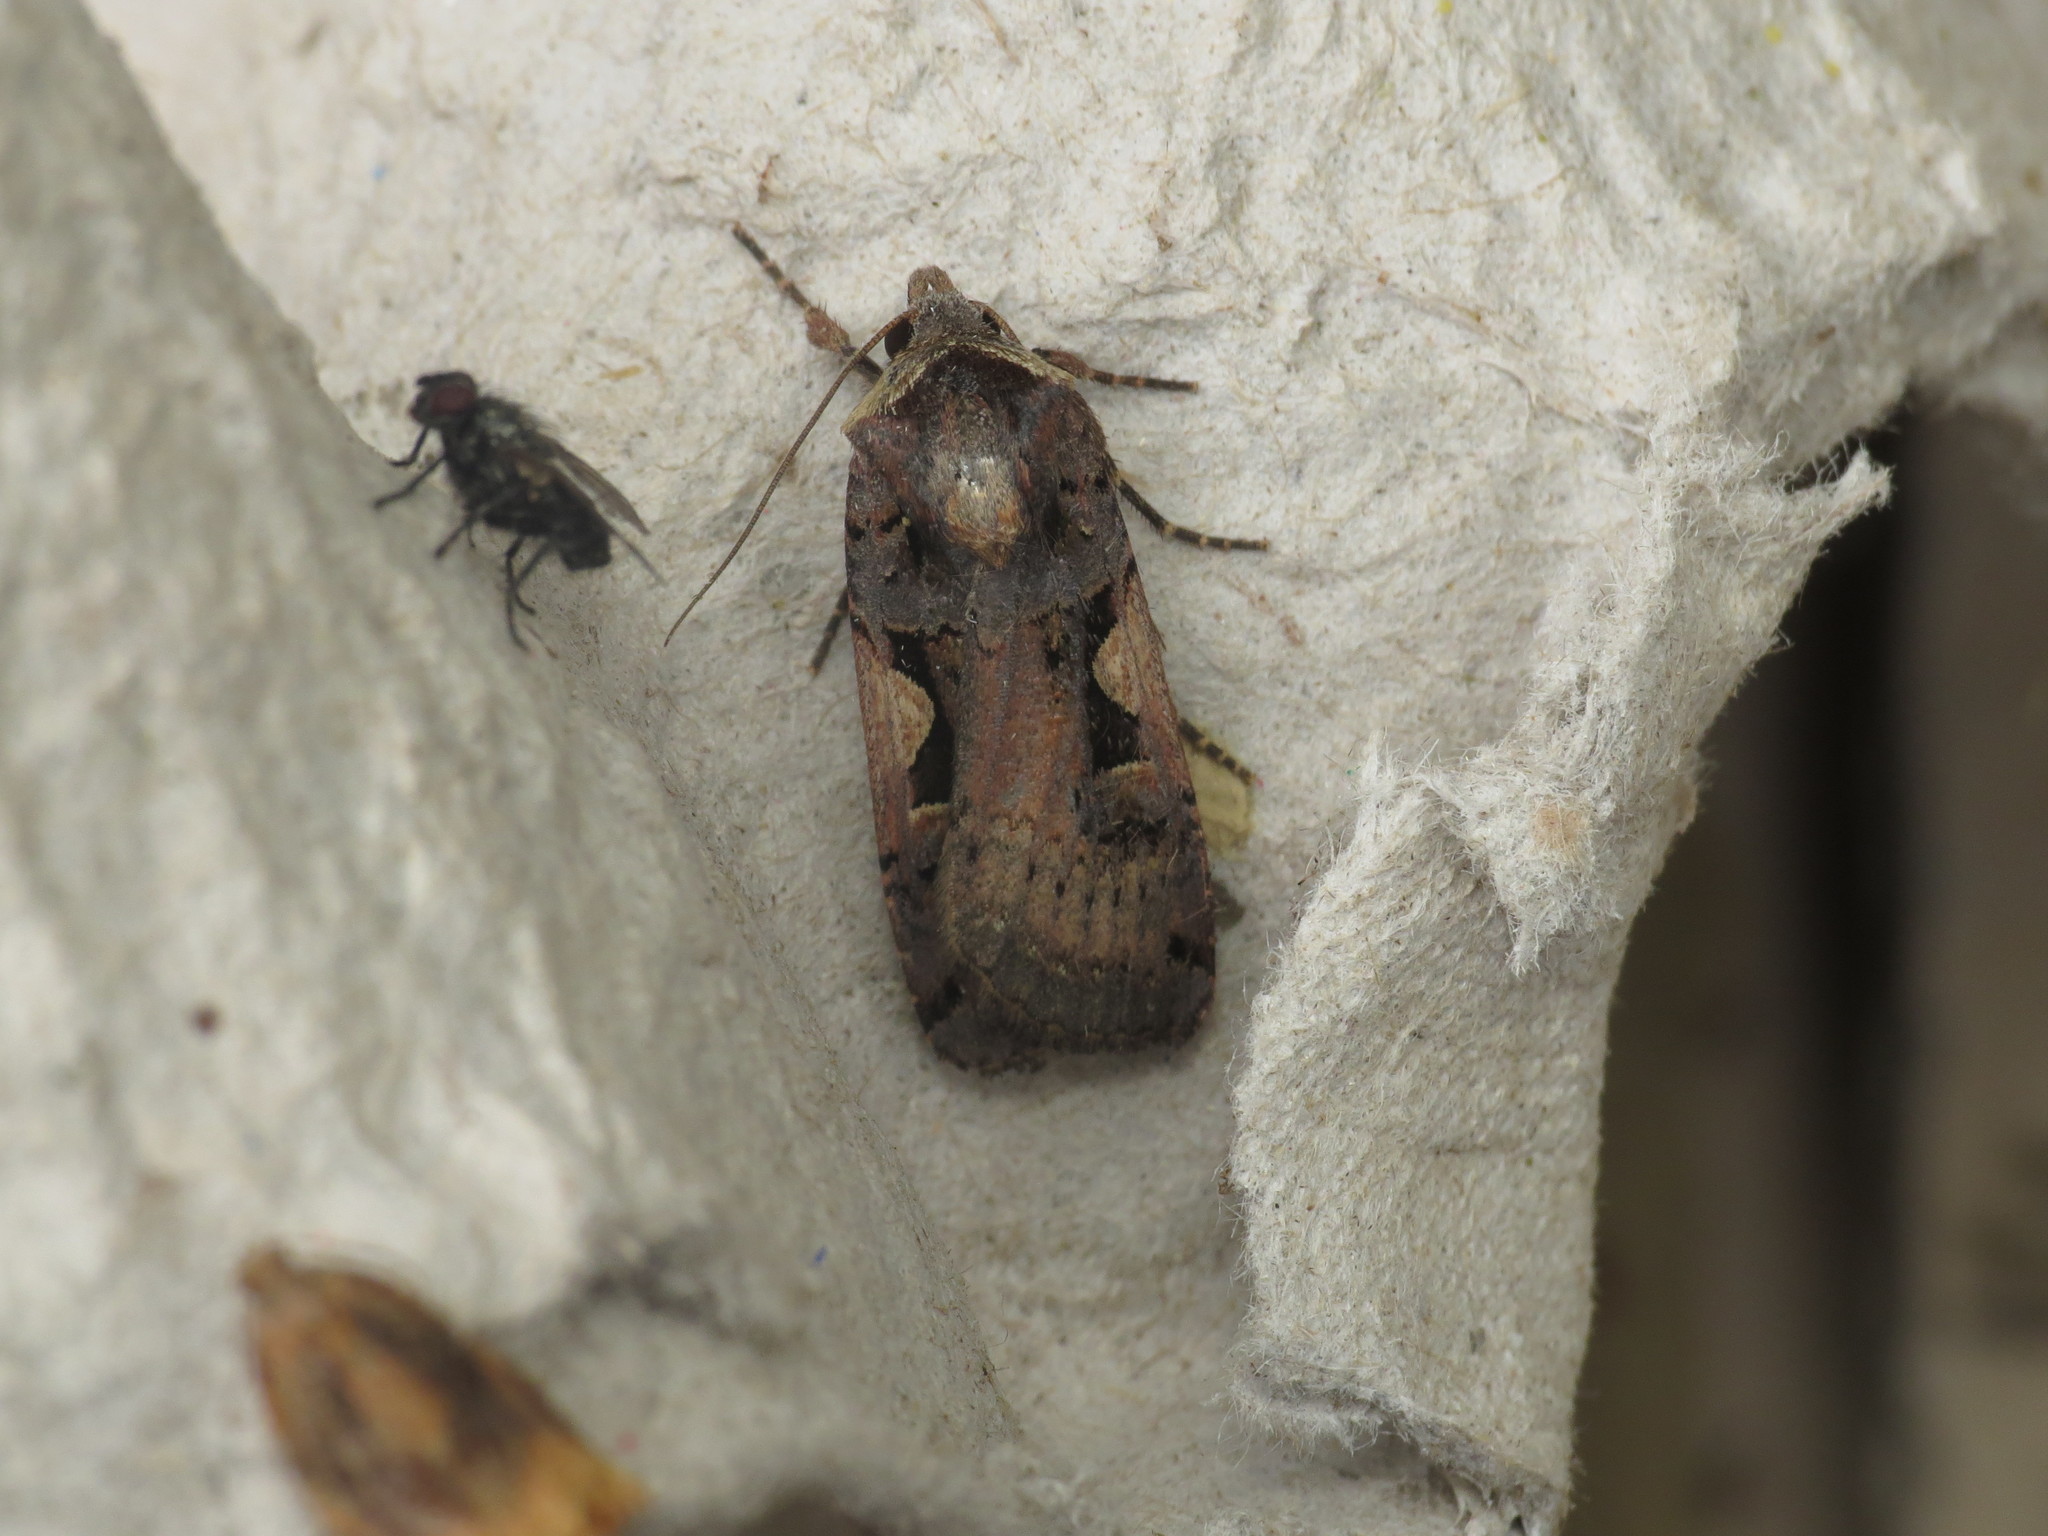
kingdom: Animalia
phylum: Arthropoda
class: Insecta
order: Lepidoptera
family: Noctuidae
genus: Xestia
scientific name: Xestia c-nigrum
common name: Setaceous hebrew character
